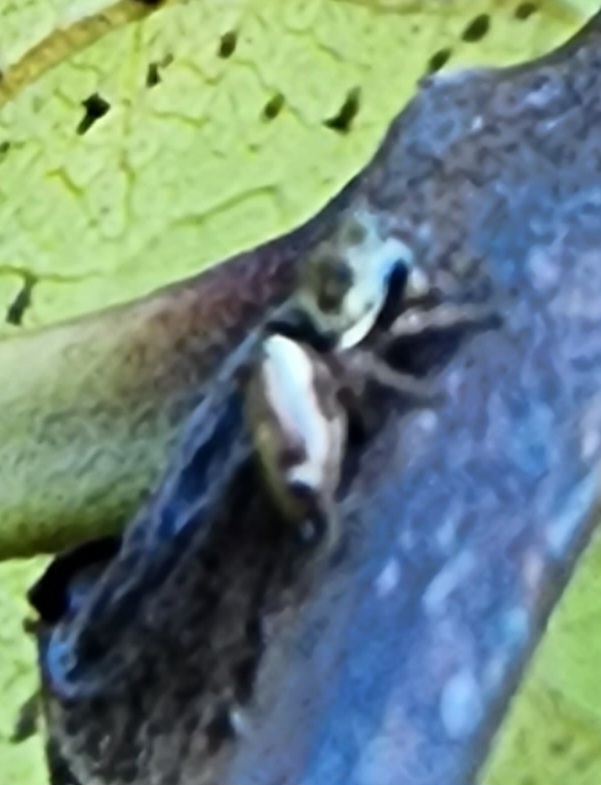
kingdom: Animalia
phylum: Arthropoda
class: Arachnida
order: Araneae
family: Salticidae
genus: Sassacus
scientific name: Sassacus vitis
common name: Jumping spiders
